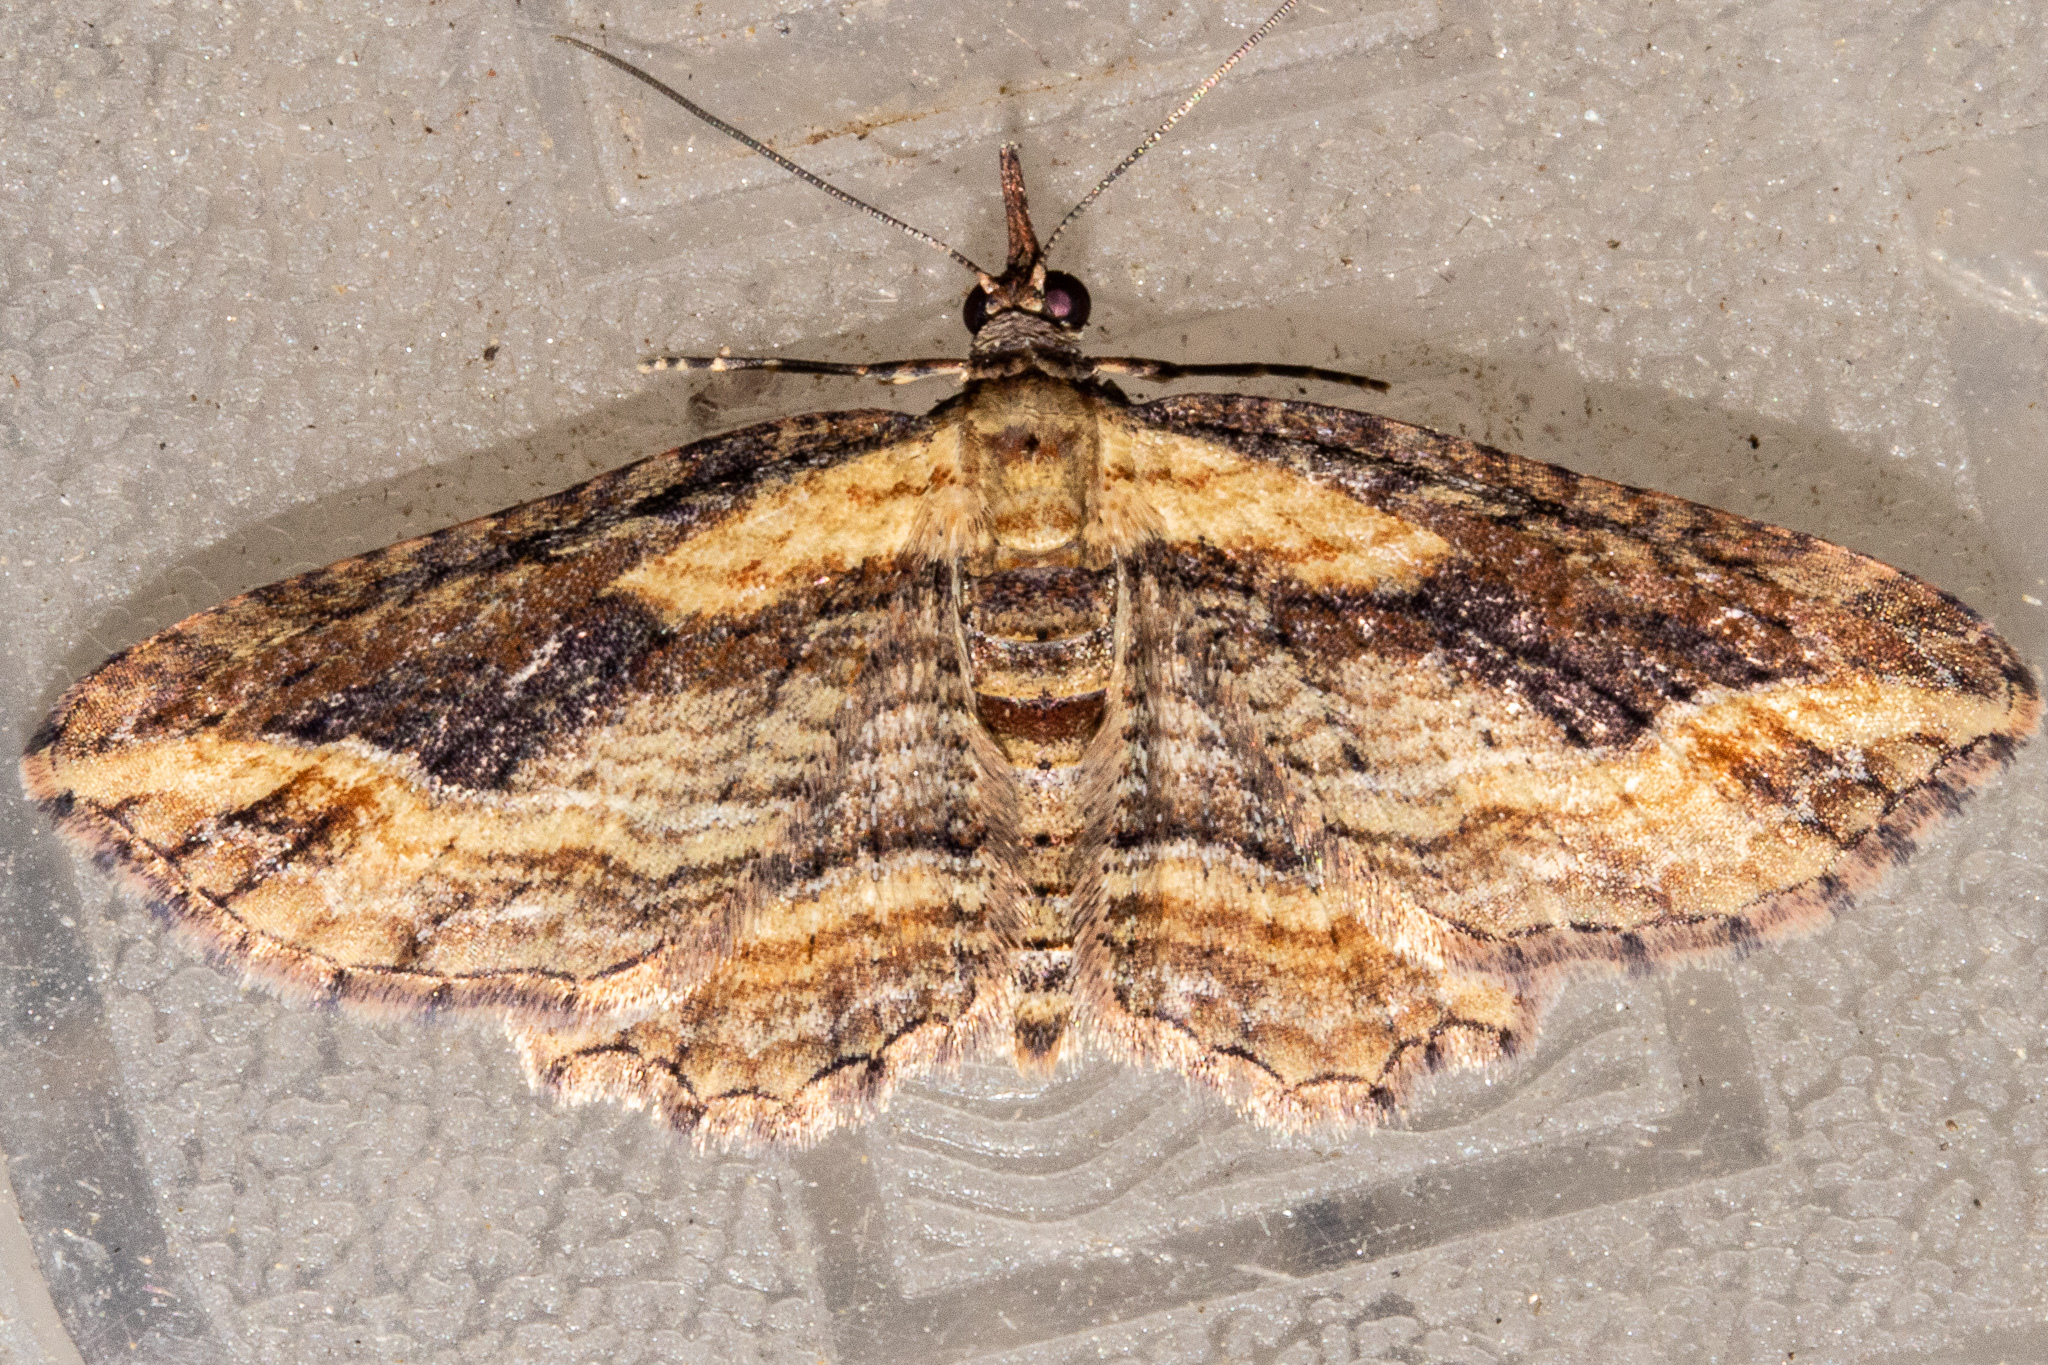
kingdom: Animalia
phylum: Arthropoda
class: Insecta
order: Lepidoptera
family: Geometridae
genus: Chloroclystis
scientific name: Chloroclystis filata
